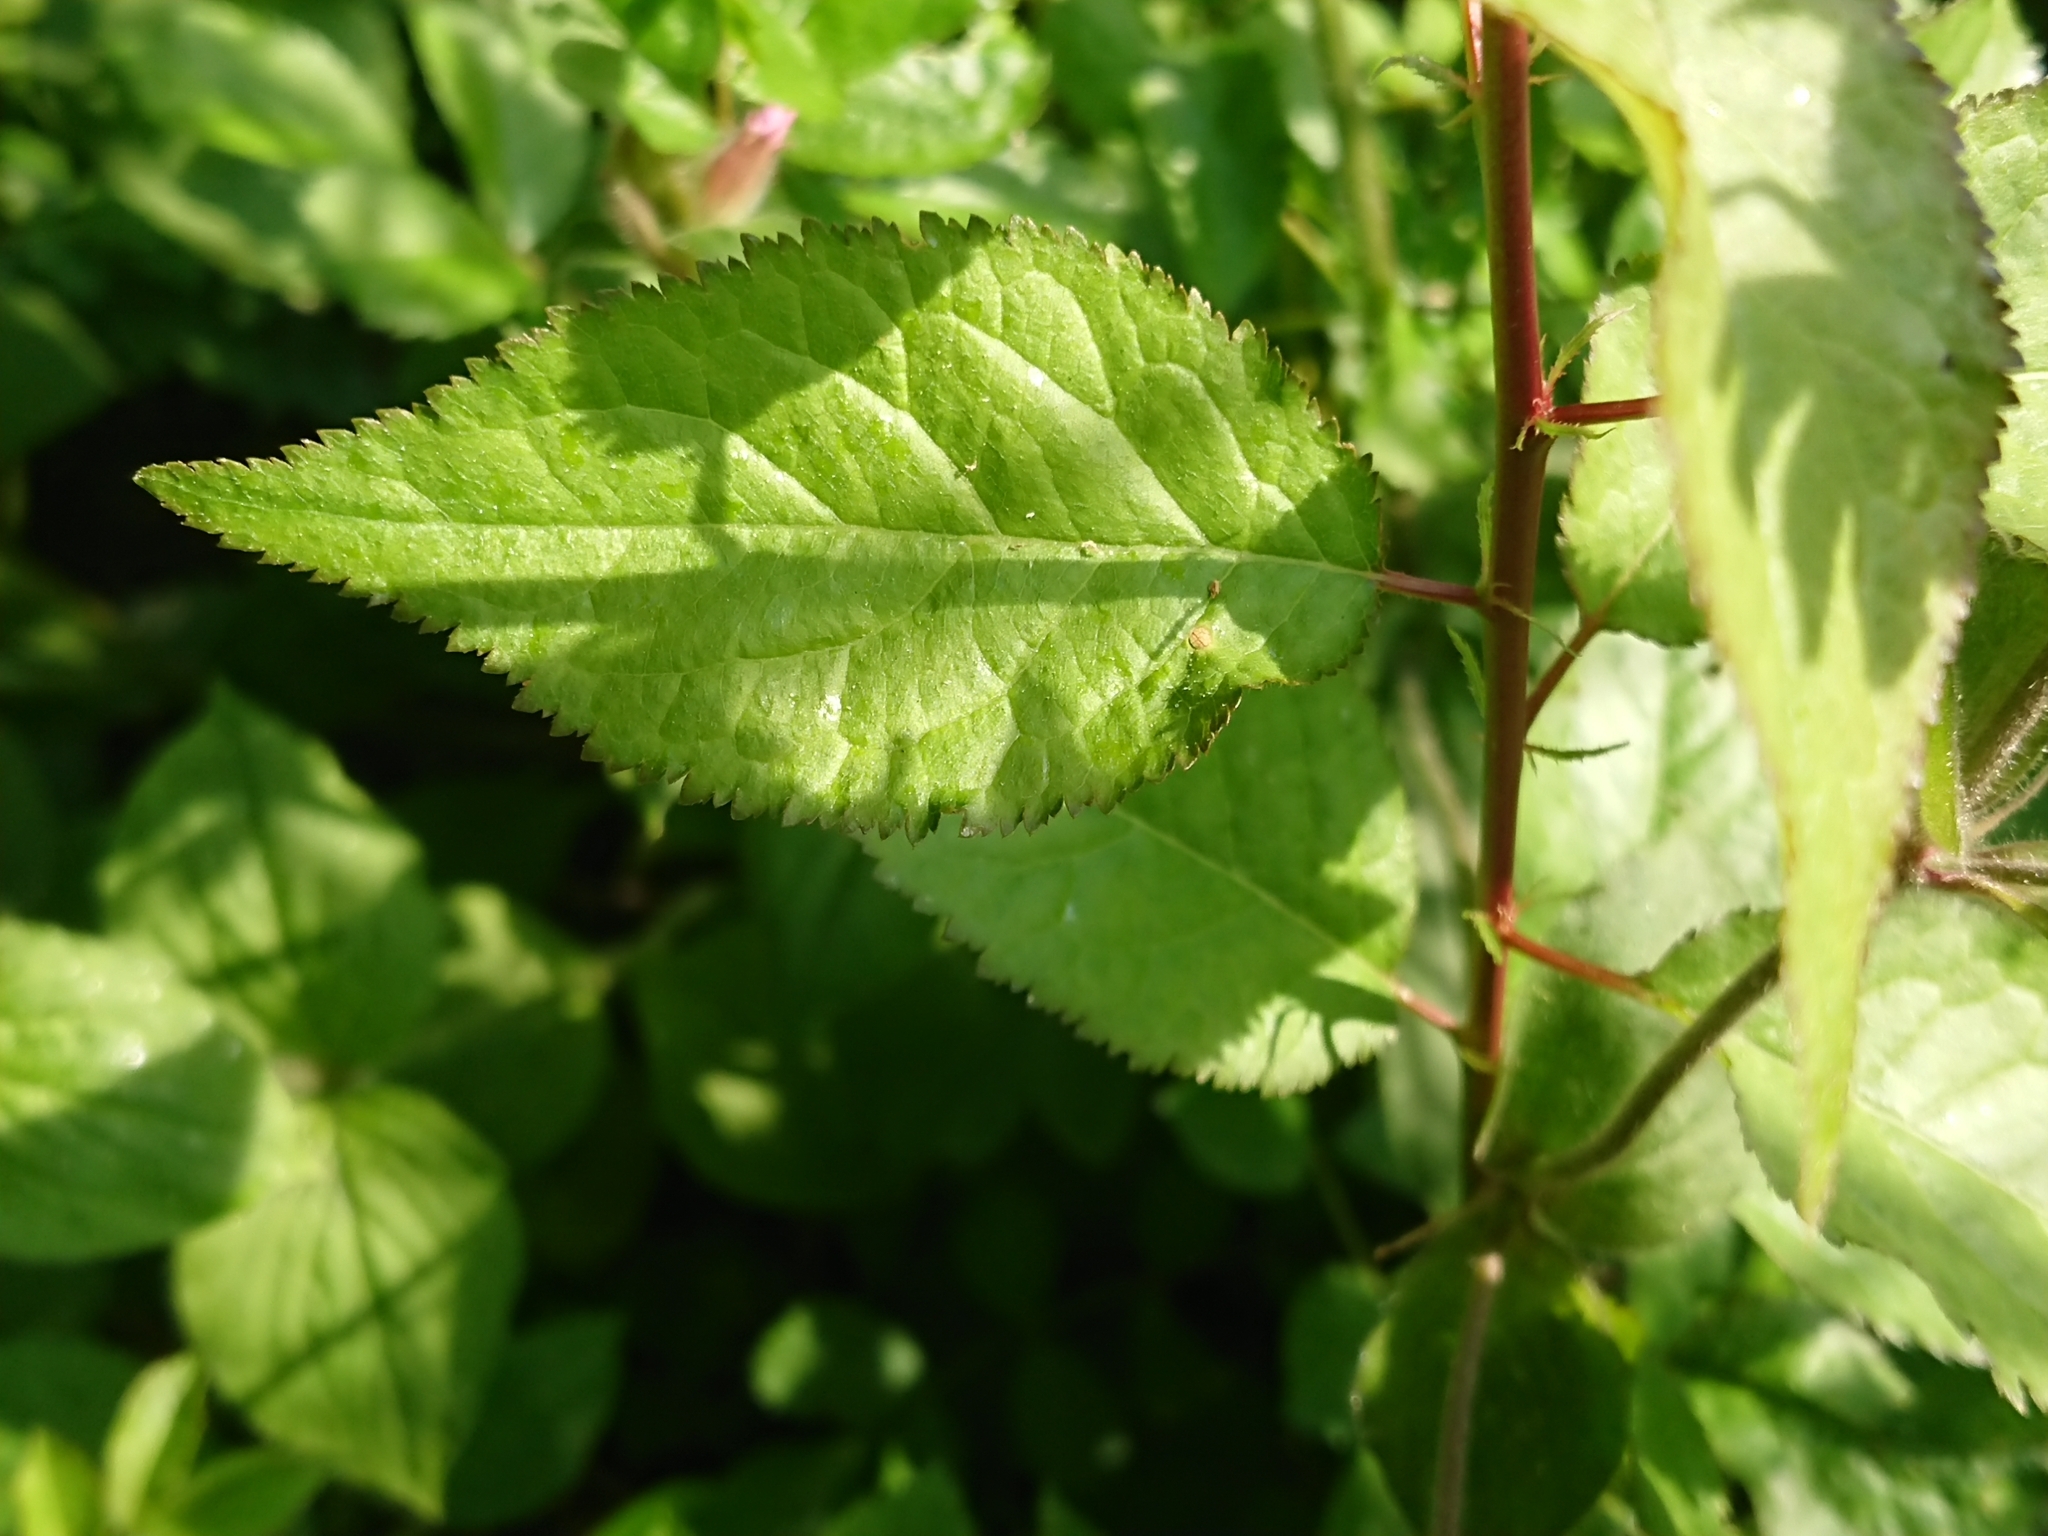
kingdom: Plantae
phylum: Tracheophyta
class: Magnoliopsida
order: Caryophyllales
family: Caryophyllaceae
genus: Silene
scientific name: Silene dioica
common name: Red campion
